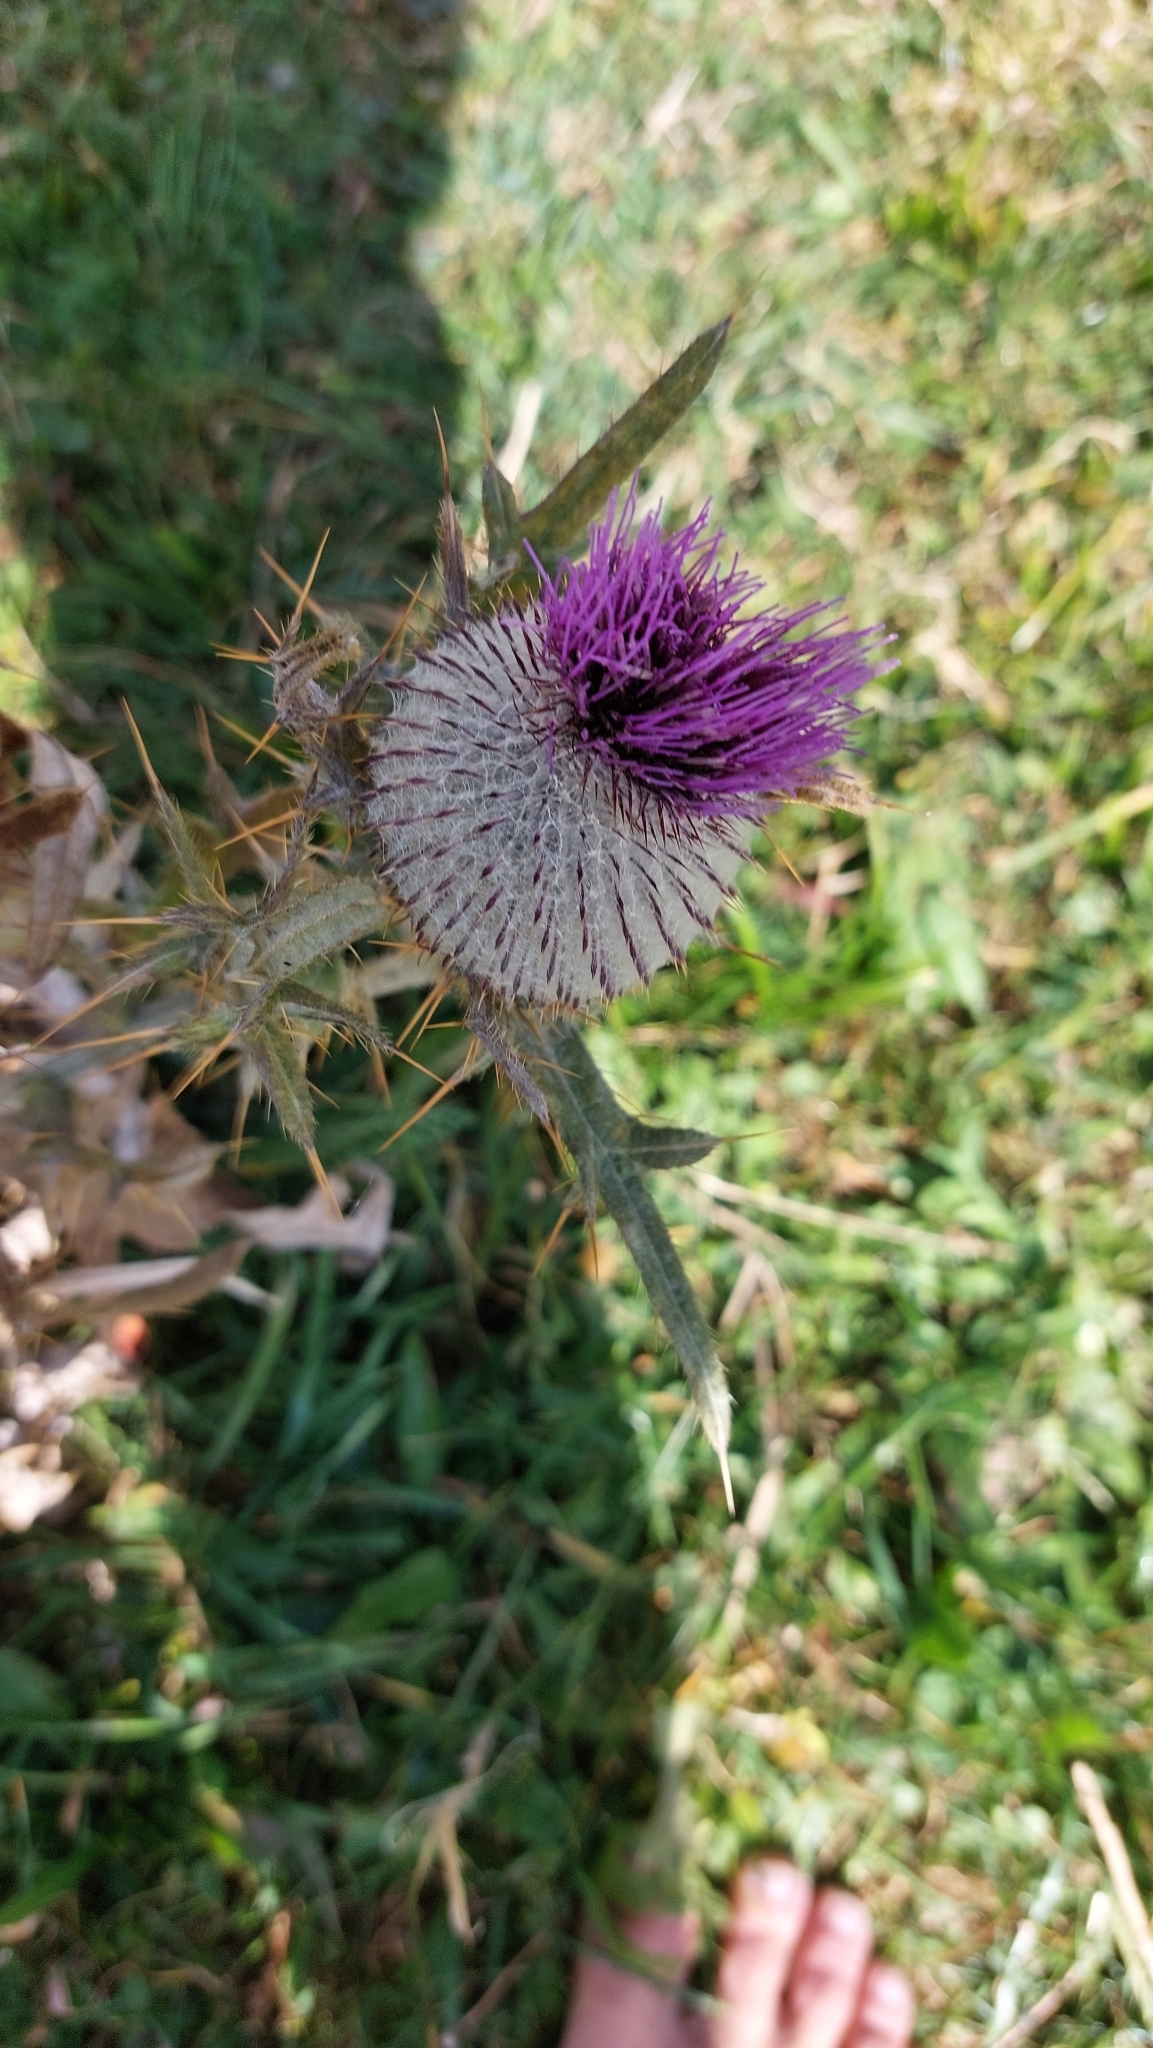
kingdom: Plantae
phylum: Tracheophyta
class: Magnoliopsida
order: Asterales
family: Asteraceae
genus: Lophiolepis
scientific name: Lophiolepis eriophora
